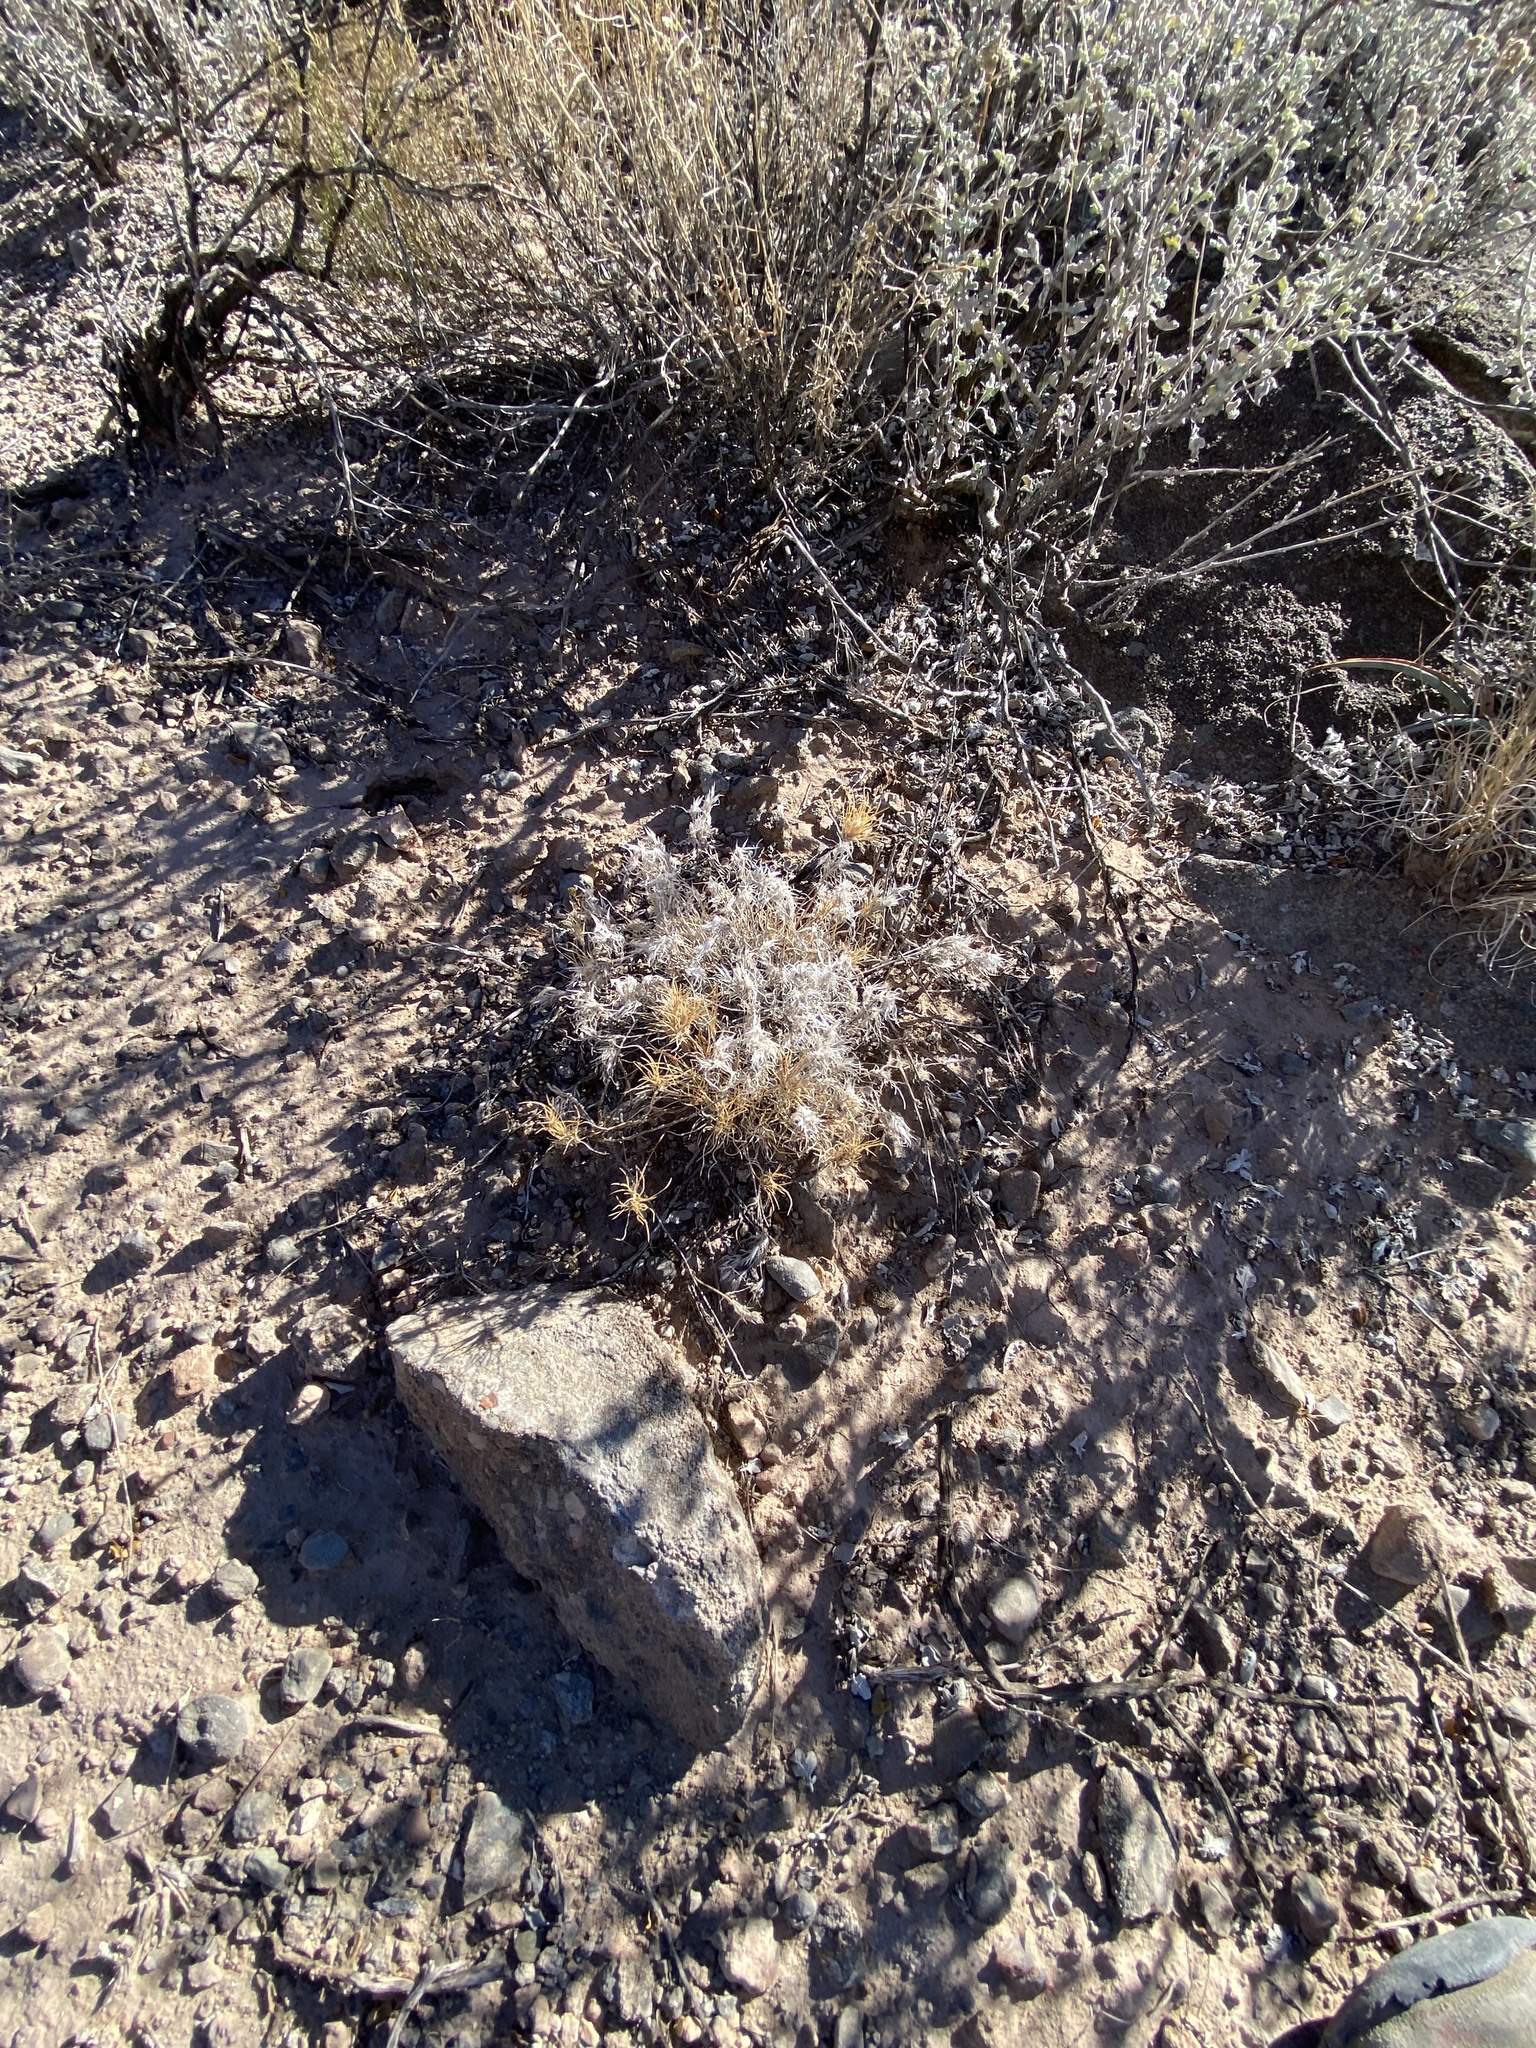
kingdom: Plantae
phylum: Tracheophyta
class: Liliopsida
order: Poales
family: Poaceae
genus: Dasyochloa
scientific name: Dasyochloa pulchella
